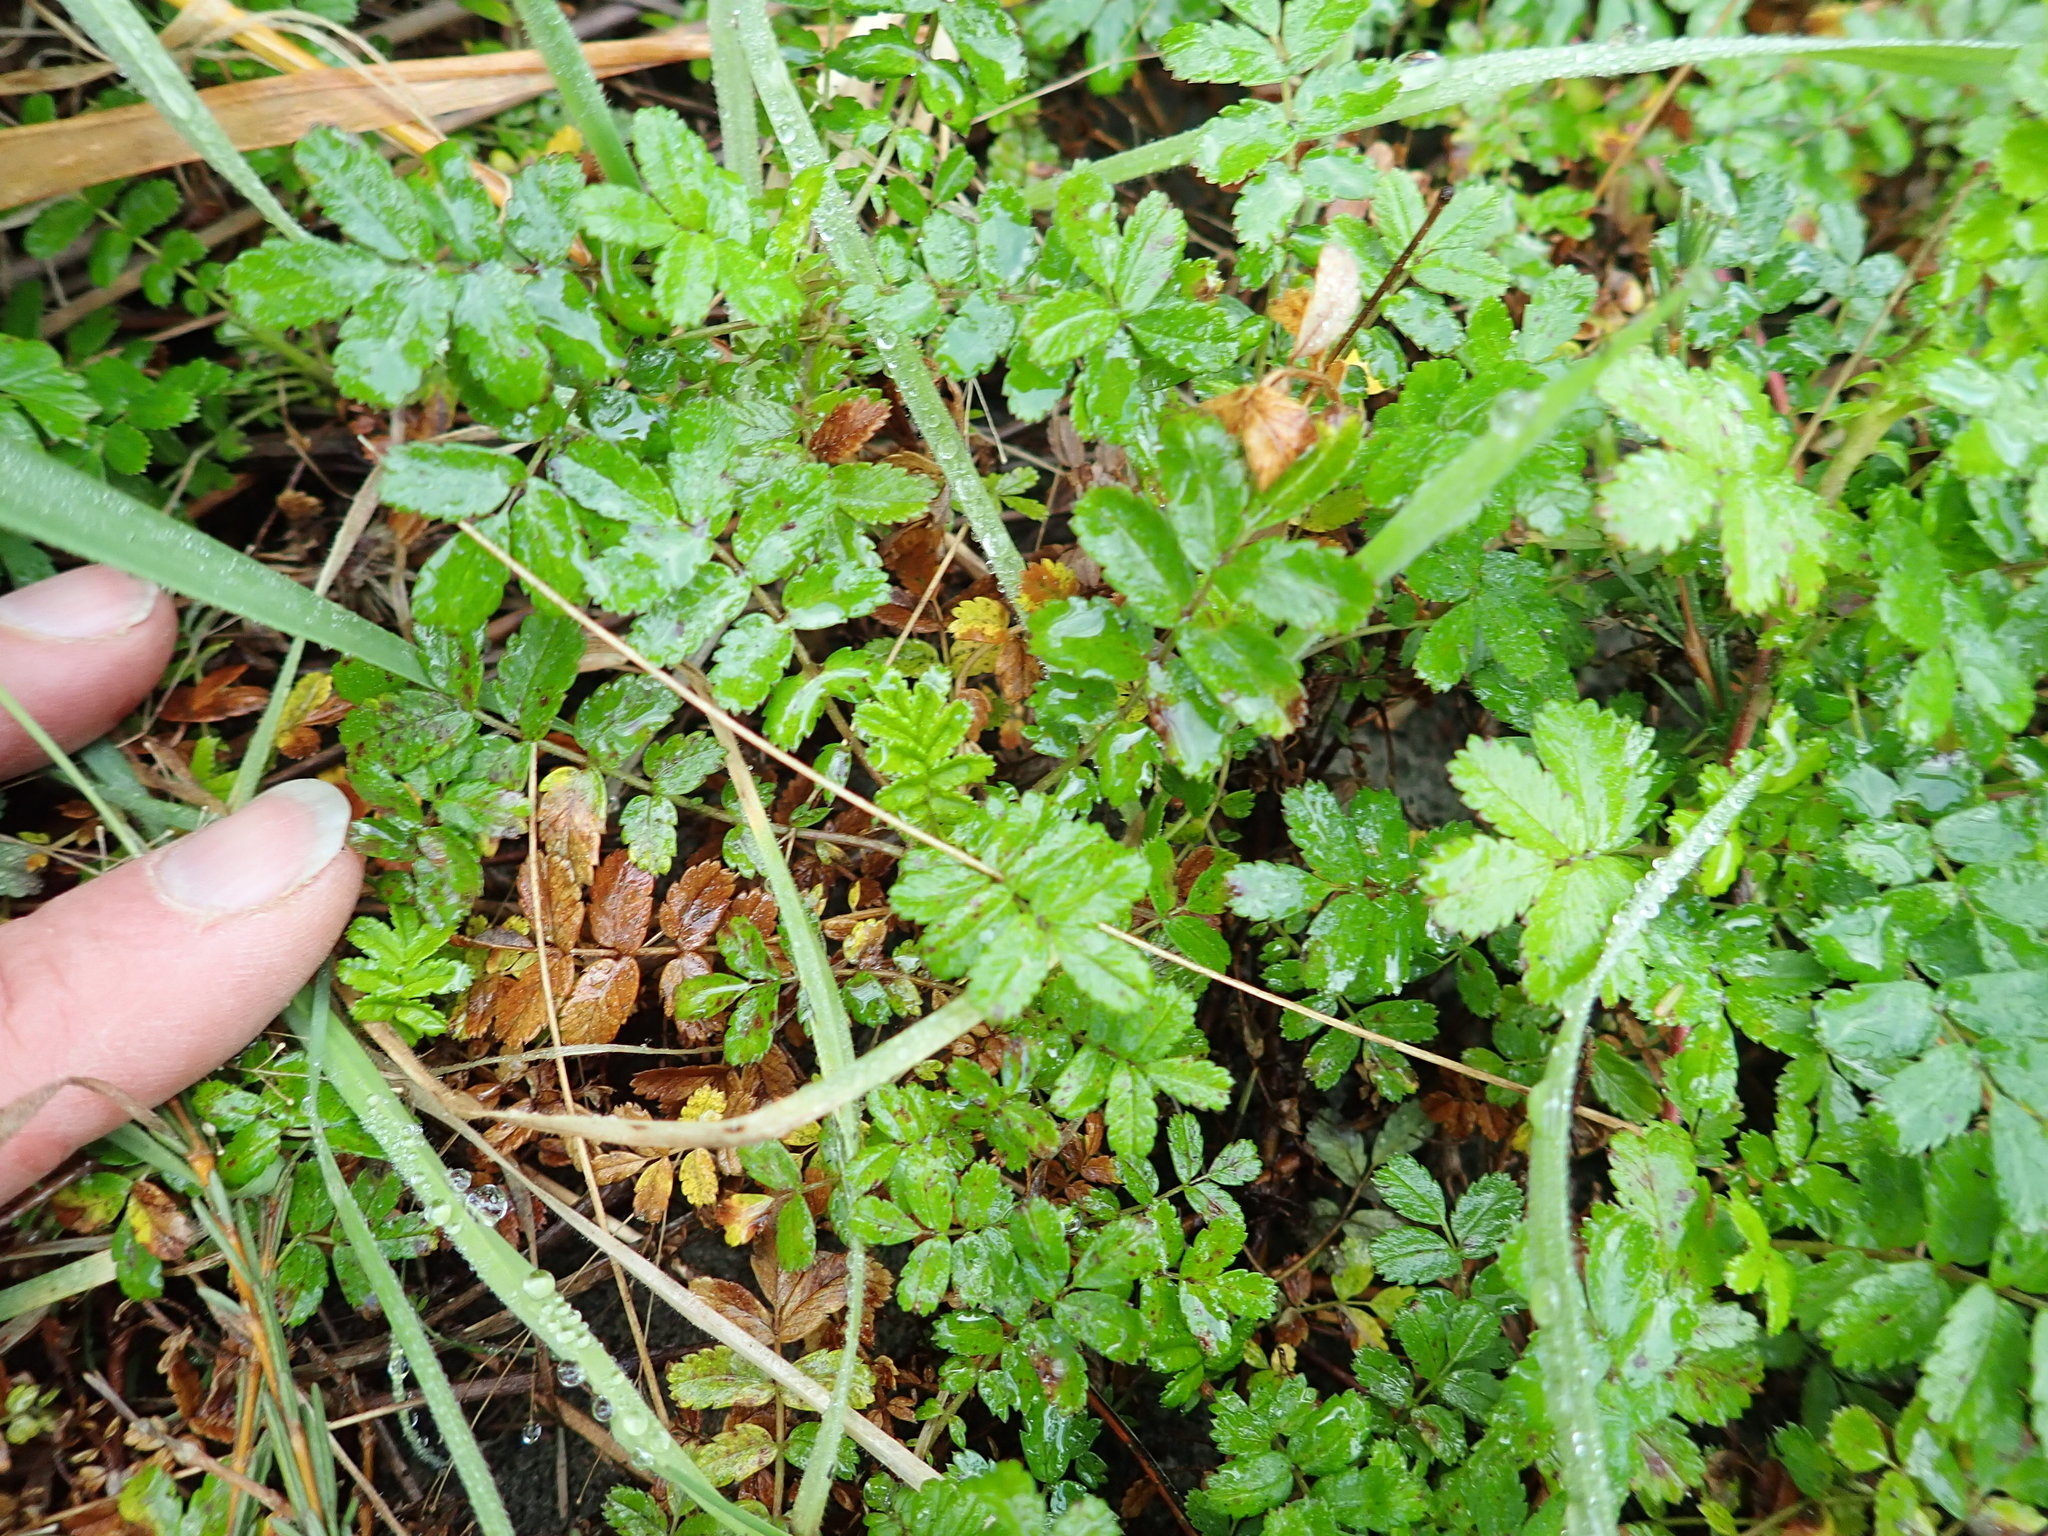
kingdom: Plantae
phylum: Tracheophyta
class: Magnoliopsida
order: Rosales
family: Rosaceae
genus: Acaena
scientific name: Acaena novae-zelandiae
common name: Pirri-pirri-bur
